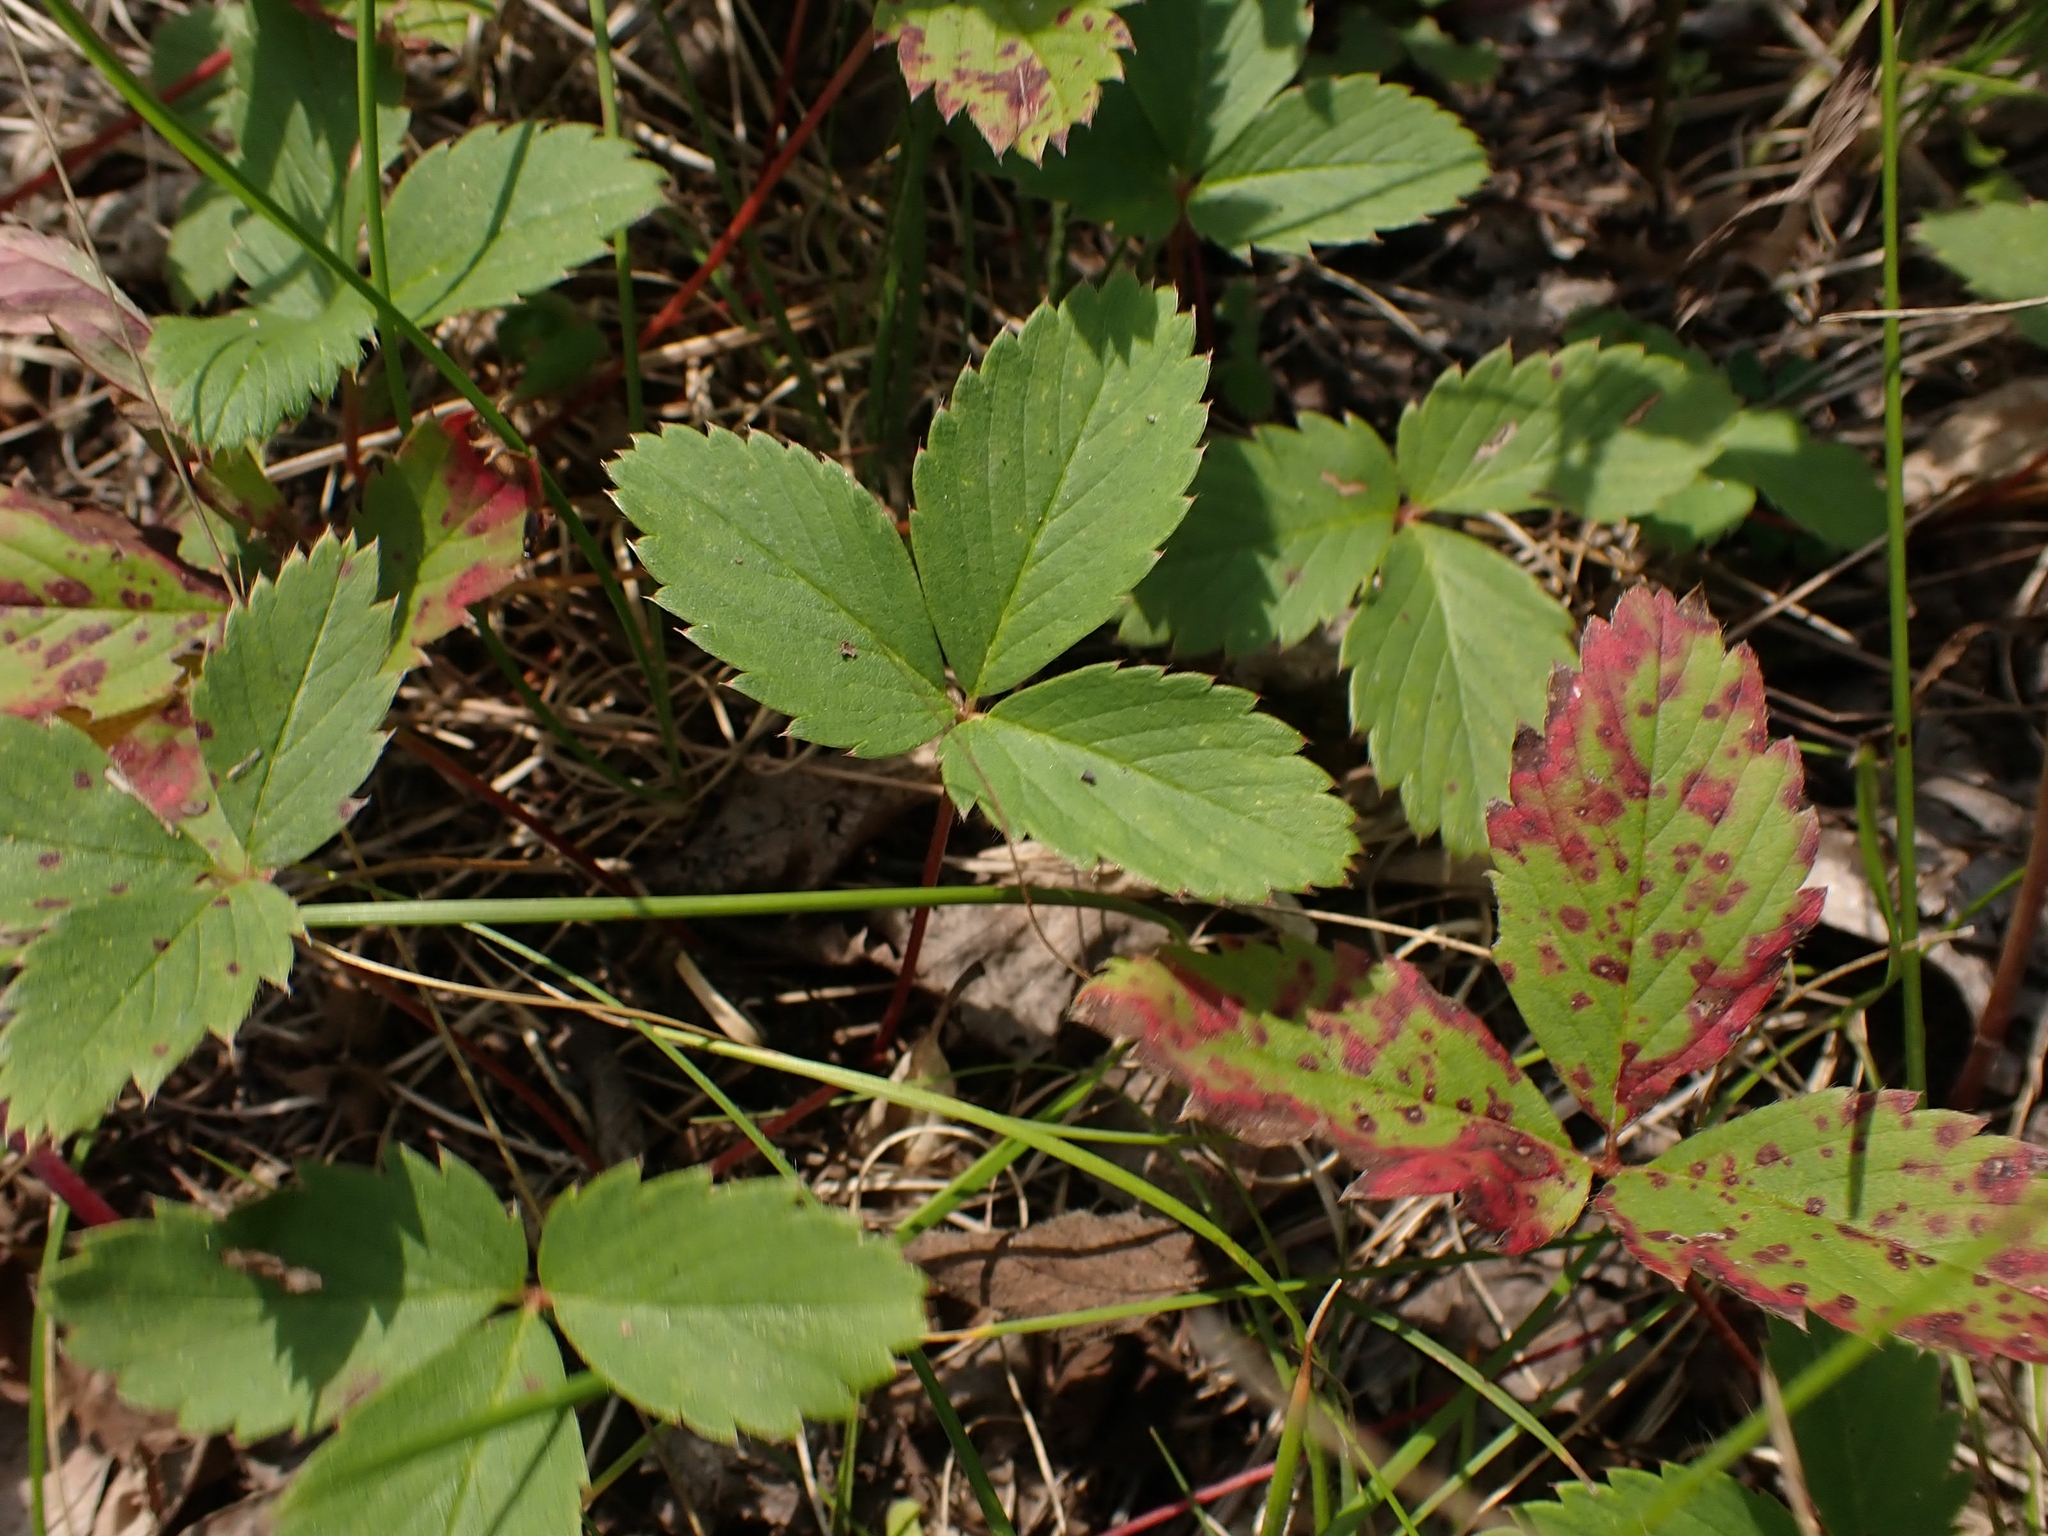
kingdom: Plantae
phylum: Tracheophyta
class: Magnoliopsida
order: Rosales
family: Rosaceae
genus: Fragaria
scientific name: Fragaria virginiana
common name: Thickleaved wild strawberry
